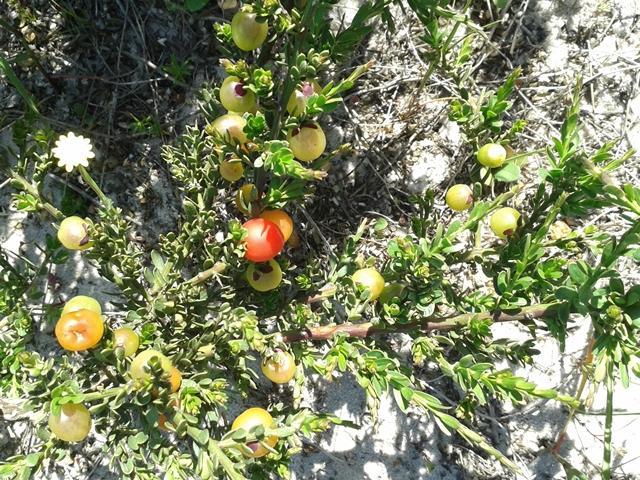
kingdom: Plantae
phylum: Tracheophyta
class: Magnoliopsida
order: Fabales
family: Polygalaceae
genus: Muraltia
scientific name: Muraltia spinosa
